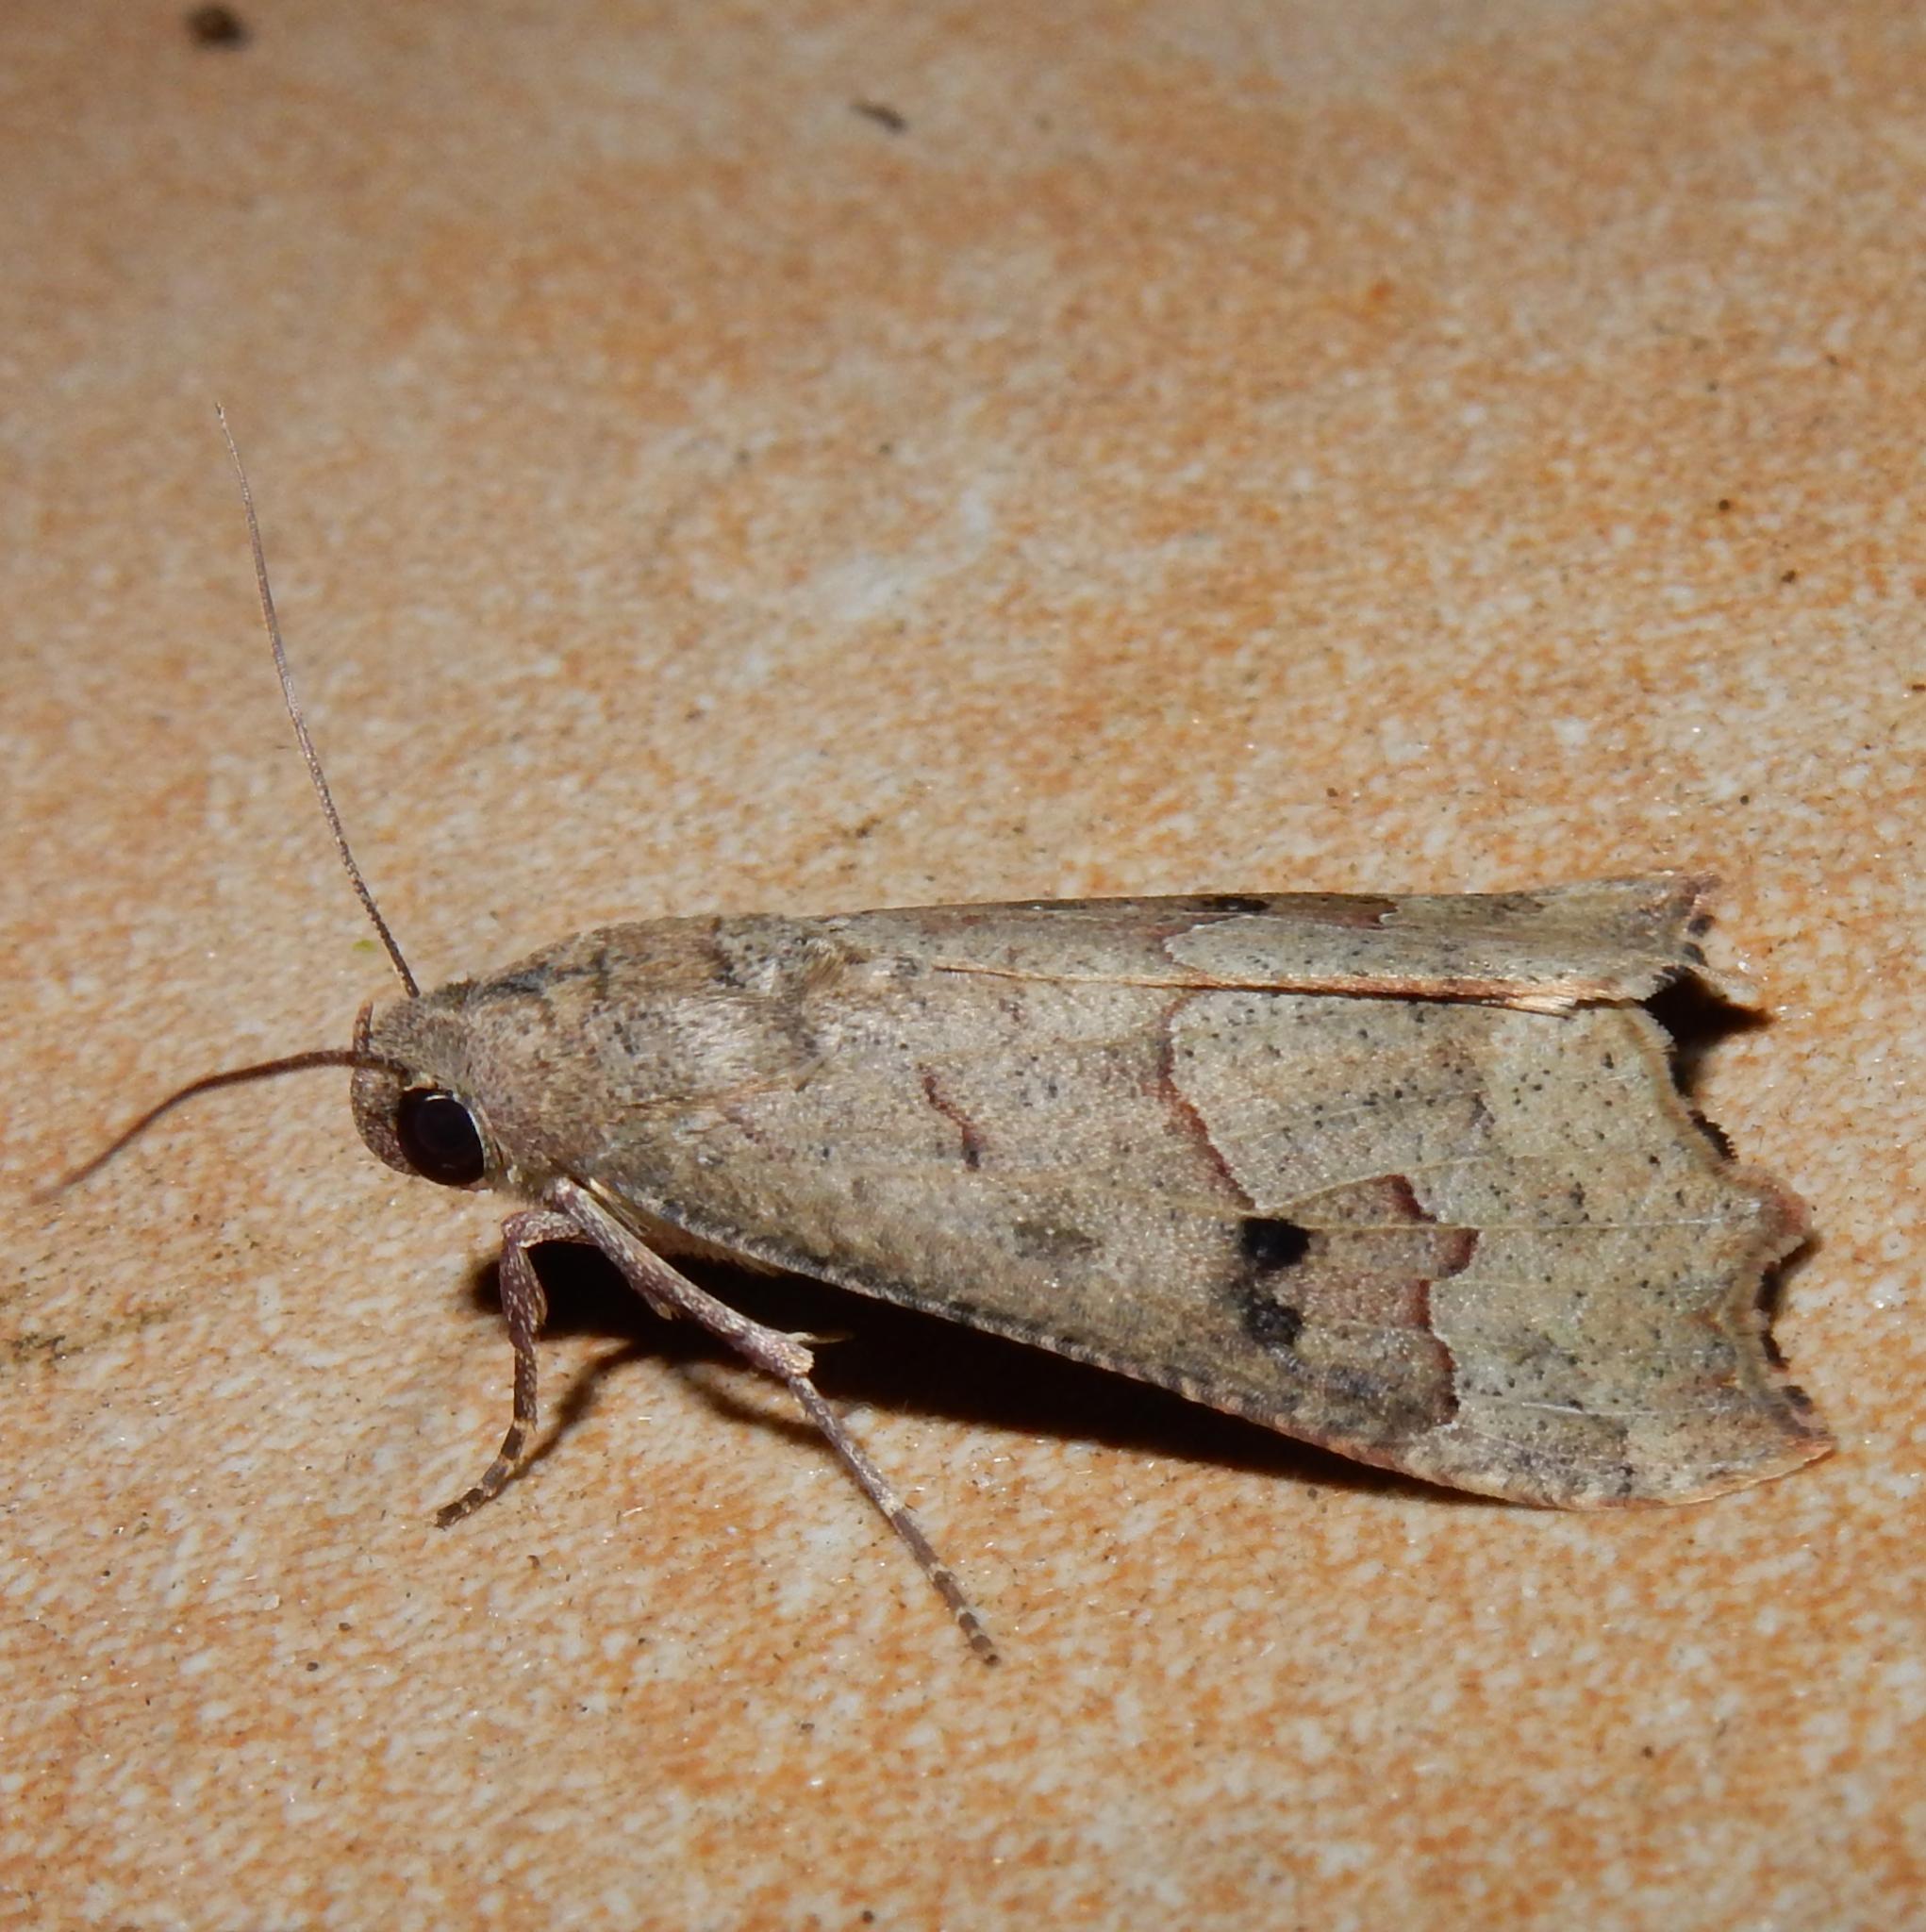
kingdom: Animalia
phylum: Arthropoda
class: Insecta
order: Lepidoptera
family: Erebidae
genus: Anomis
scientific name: Anomis sabulifera
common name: Angled gem
